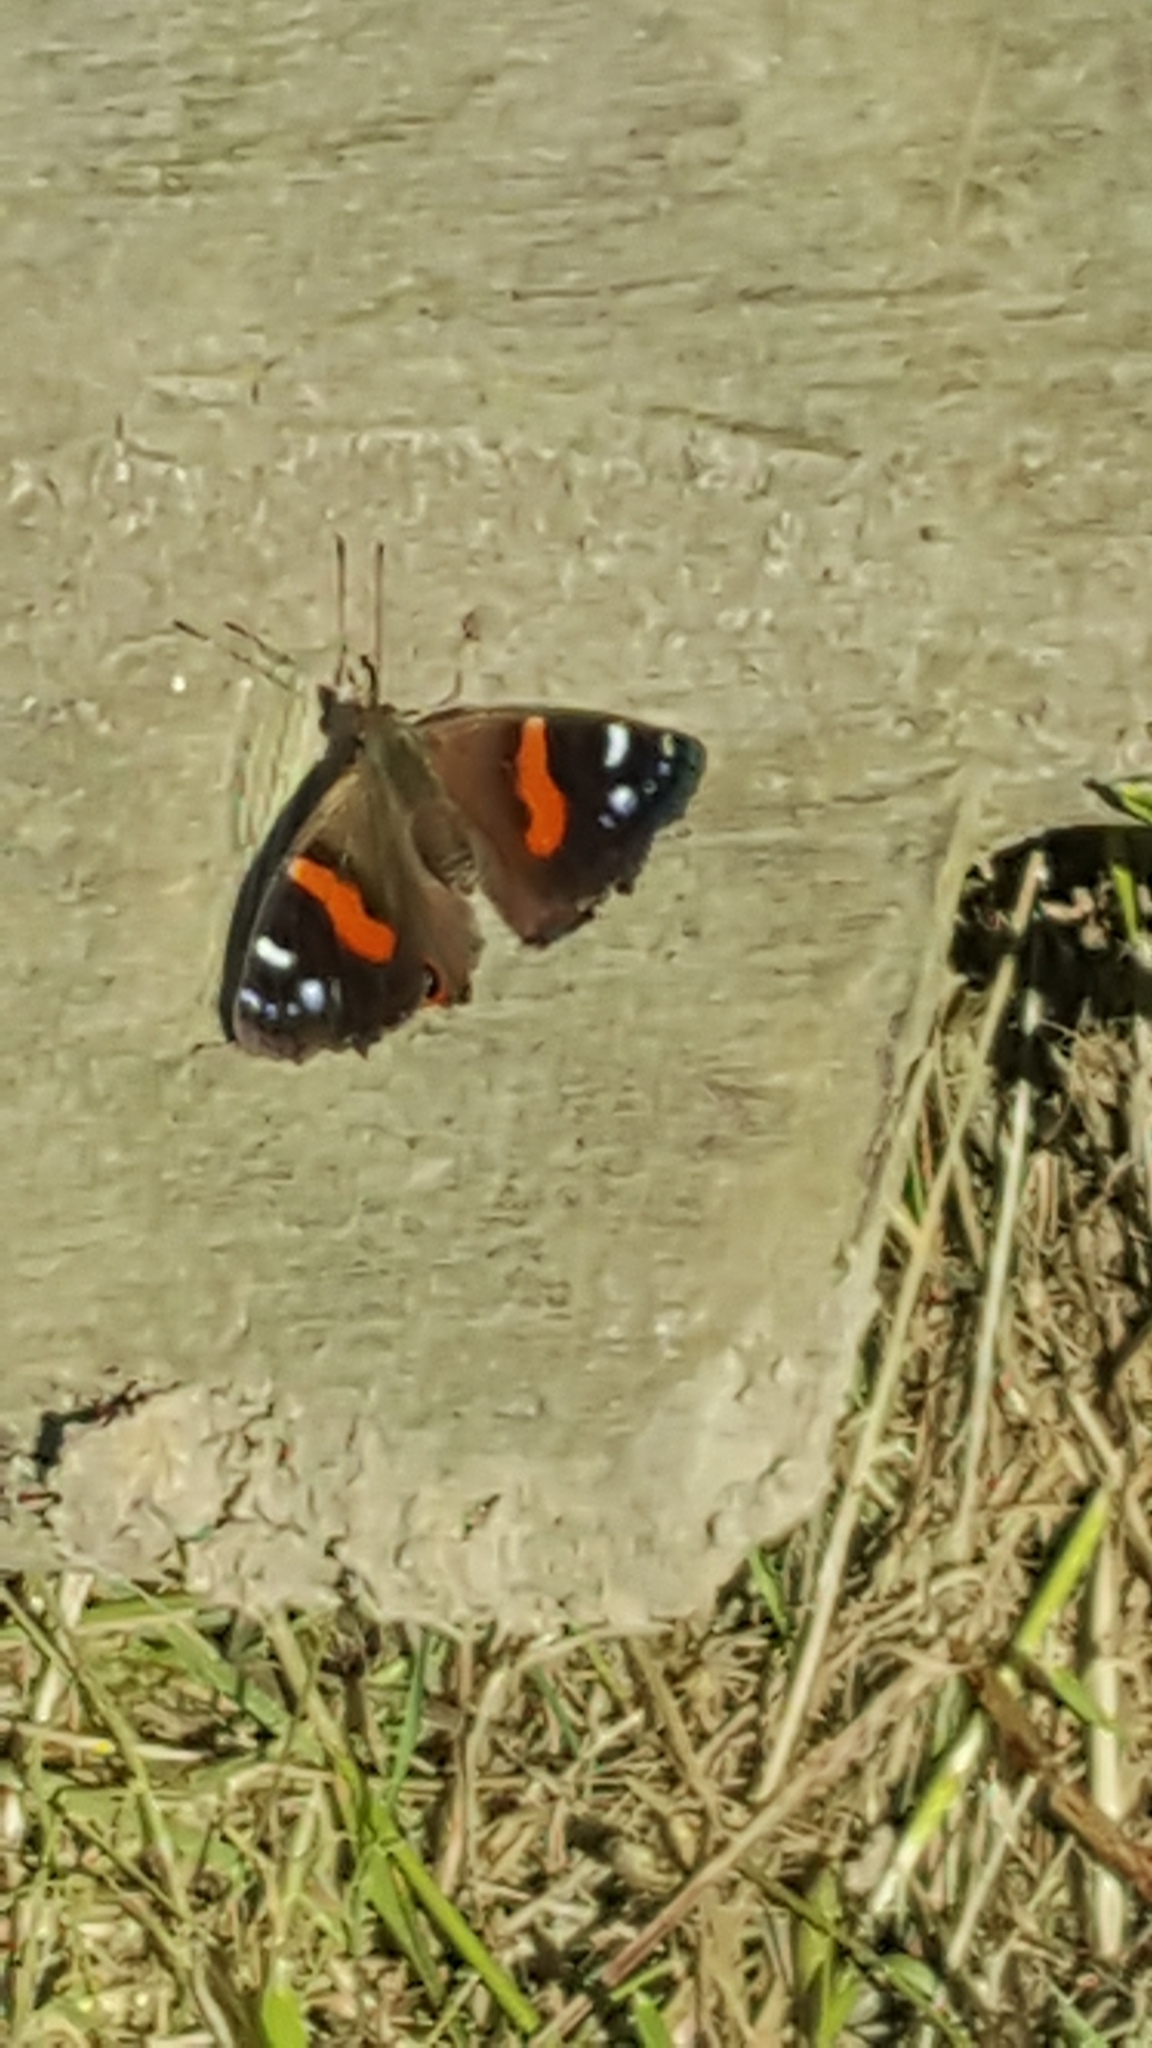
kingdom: Animalia
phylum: Arthropoda
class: Insecta
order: Lepidoptera
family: Nymphalidae
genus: Vanessa
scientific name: Vanessa gonerilla
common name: New zealand red admiral
